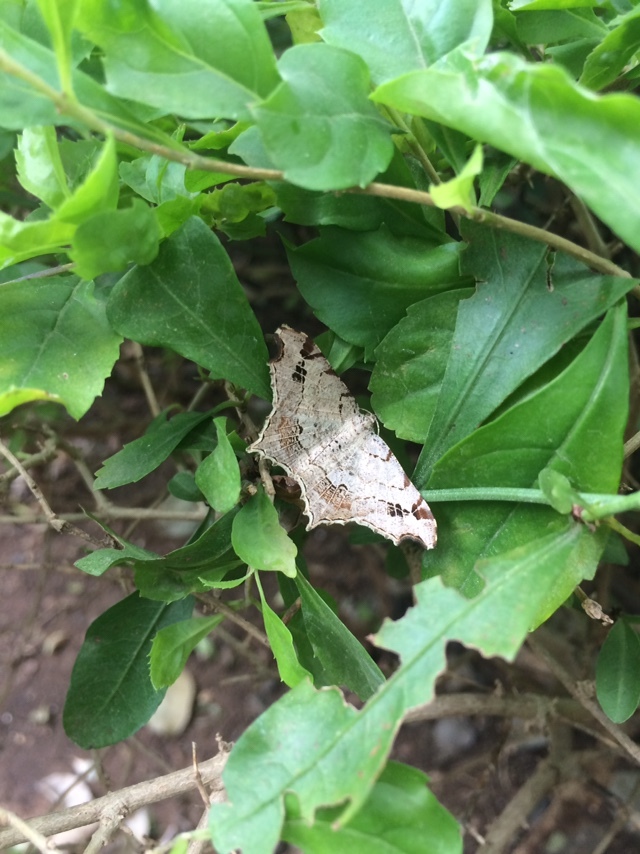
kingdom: Animalia
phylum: Arthropoda
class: Insecta
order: Lepidoptera
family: Geometridae
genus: Chiasmia
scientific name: Chiasmia emersaria
